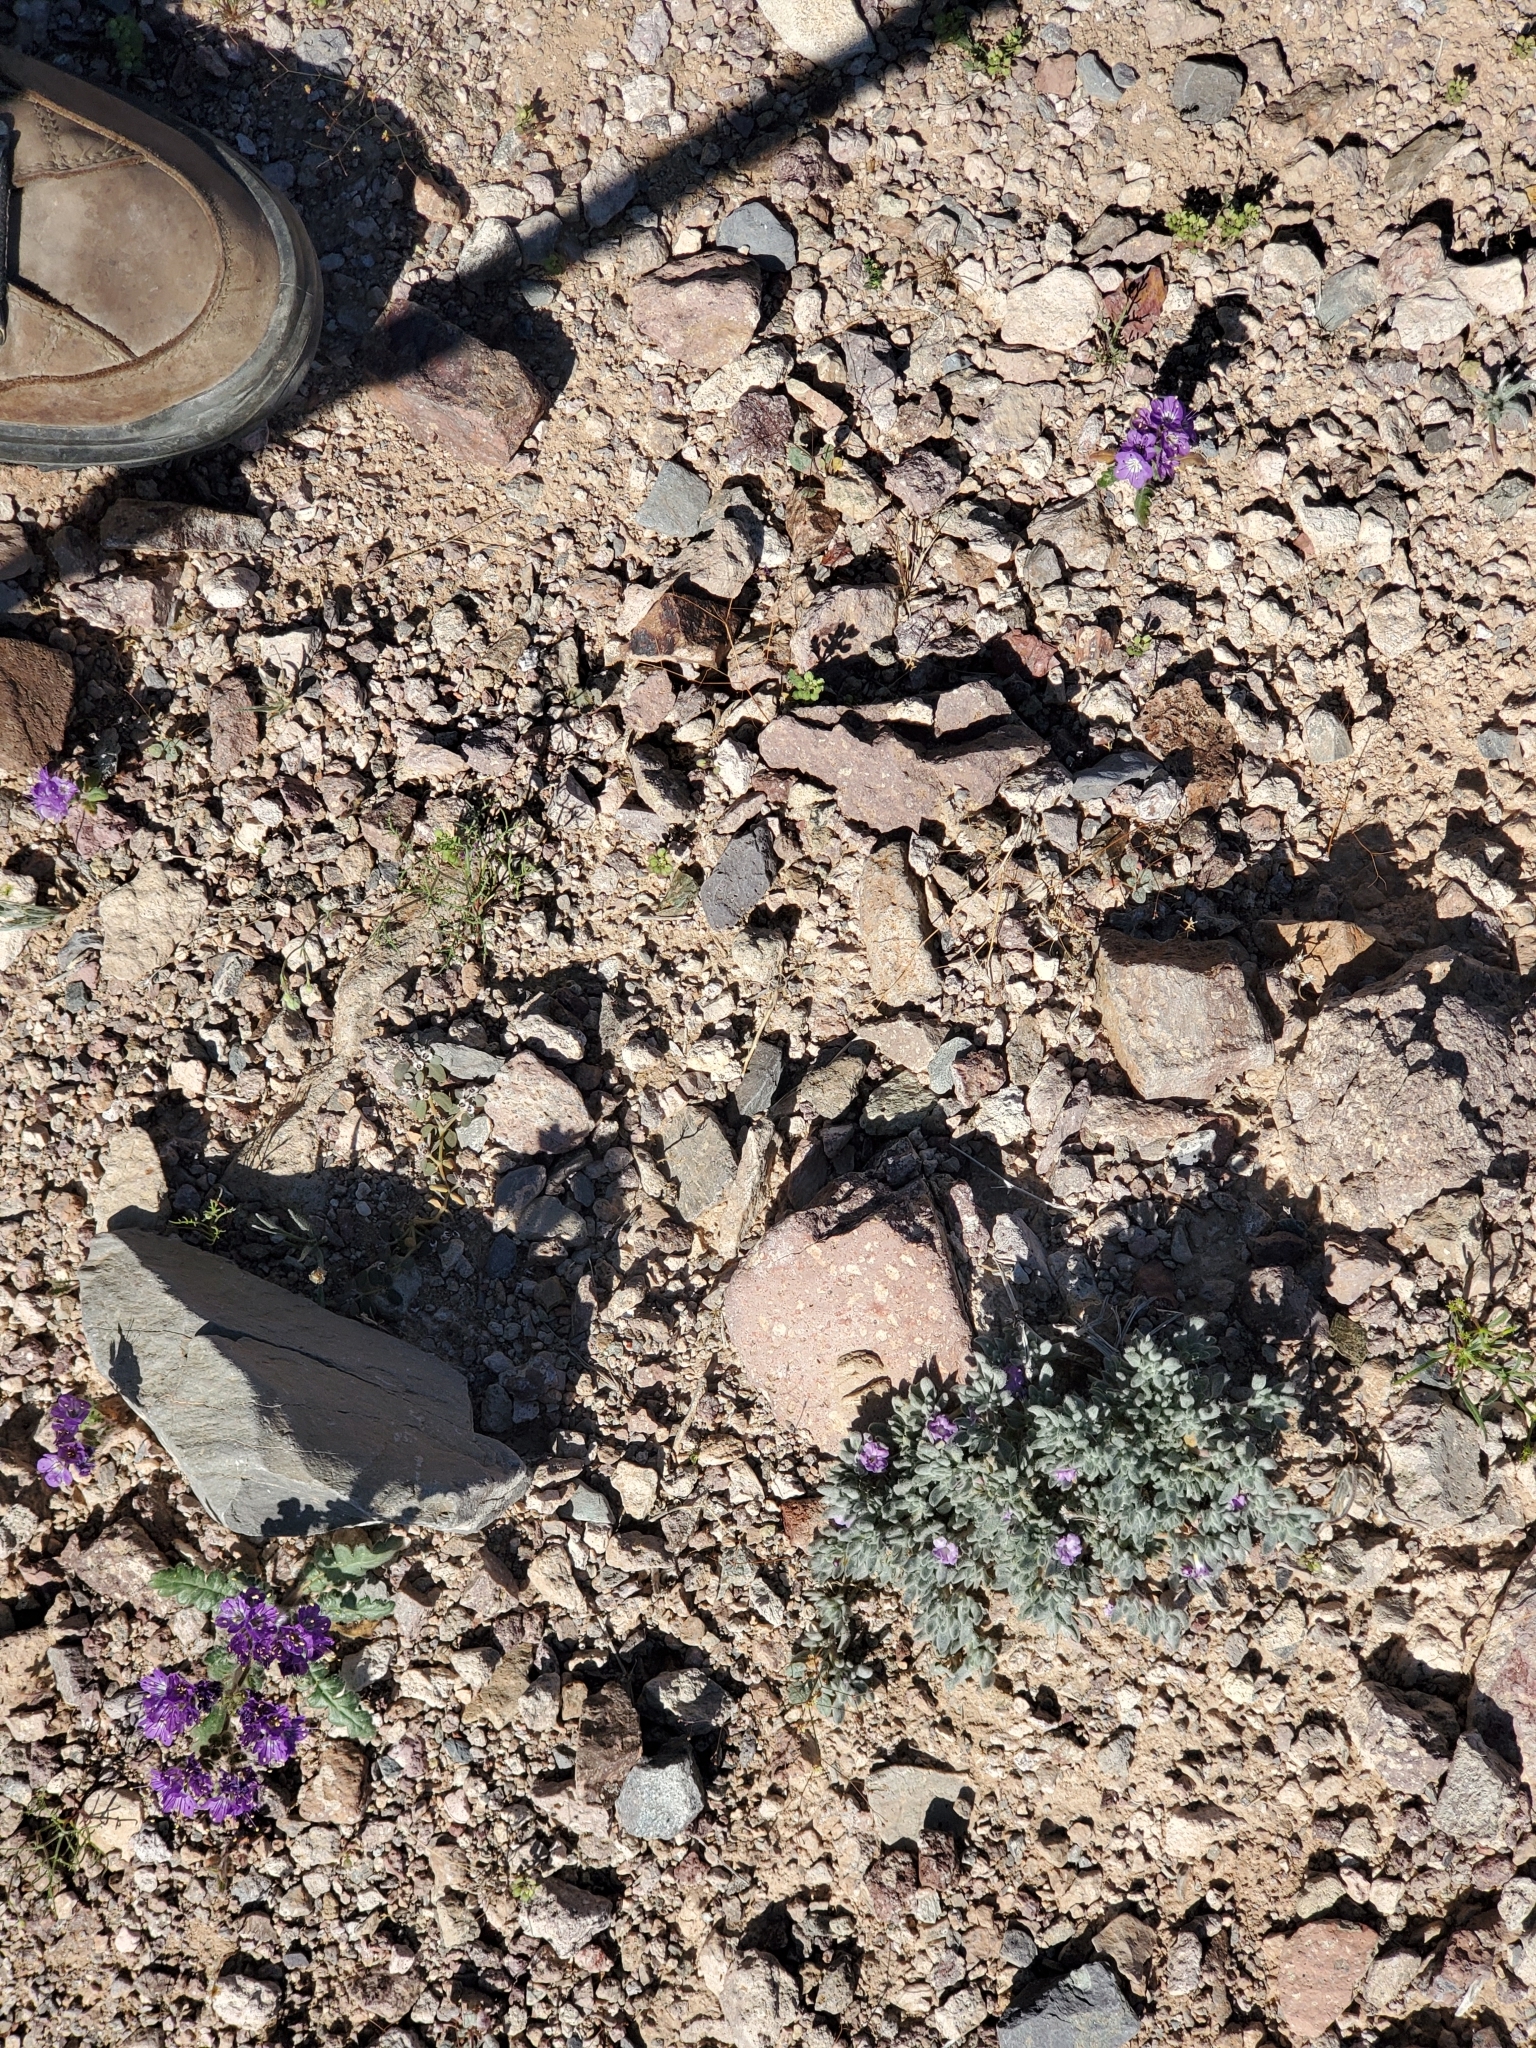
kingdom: Plantae
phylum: Tracheophyta
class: Magnoliopsida
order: Boraginales
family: Ehretiaceae
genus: Tiquilia
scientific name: Tiquilia canescens
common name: Hairy tiquilia
